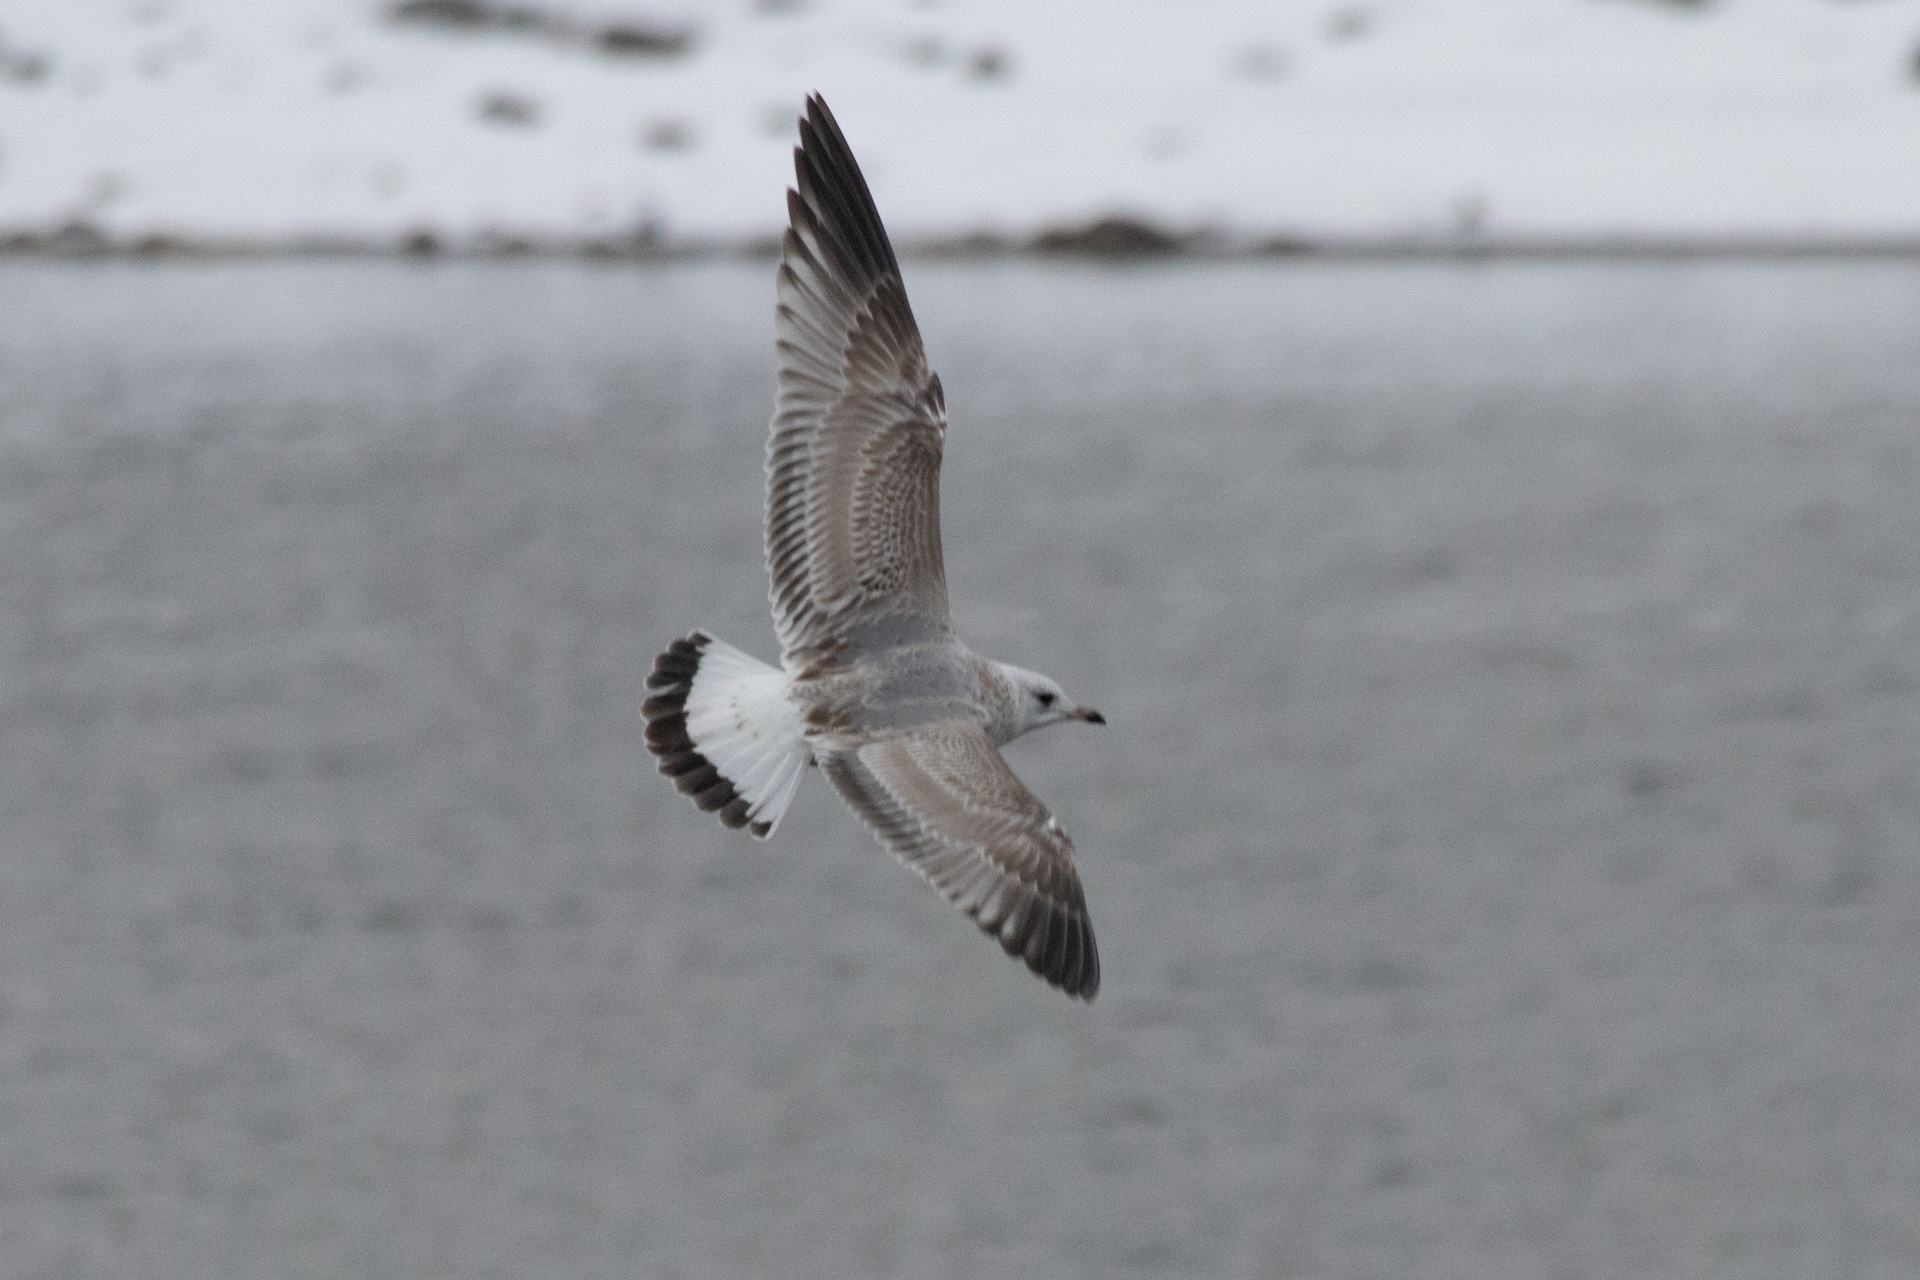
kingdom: Animalia
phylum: Chordata
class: Aves
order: Charadriiformes
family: Laridae
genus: Larus
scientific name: Larus canus
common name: Mew gull
